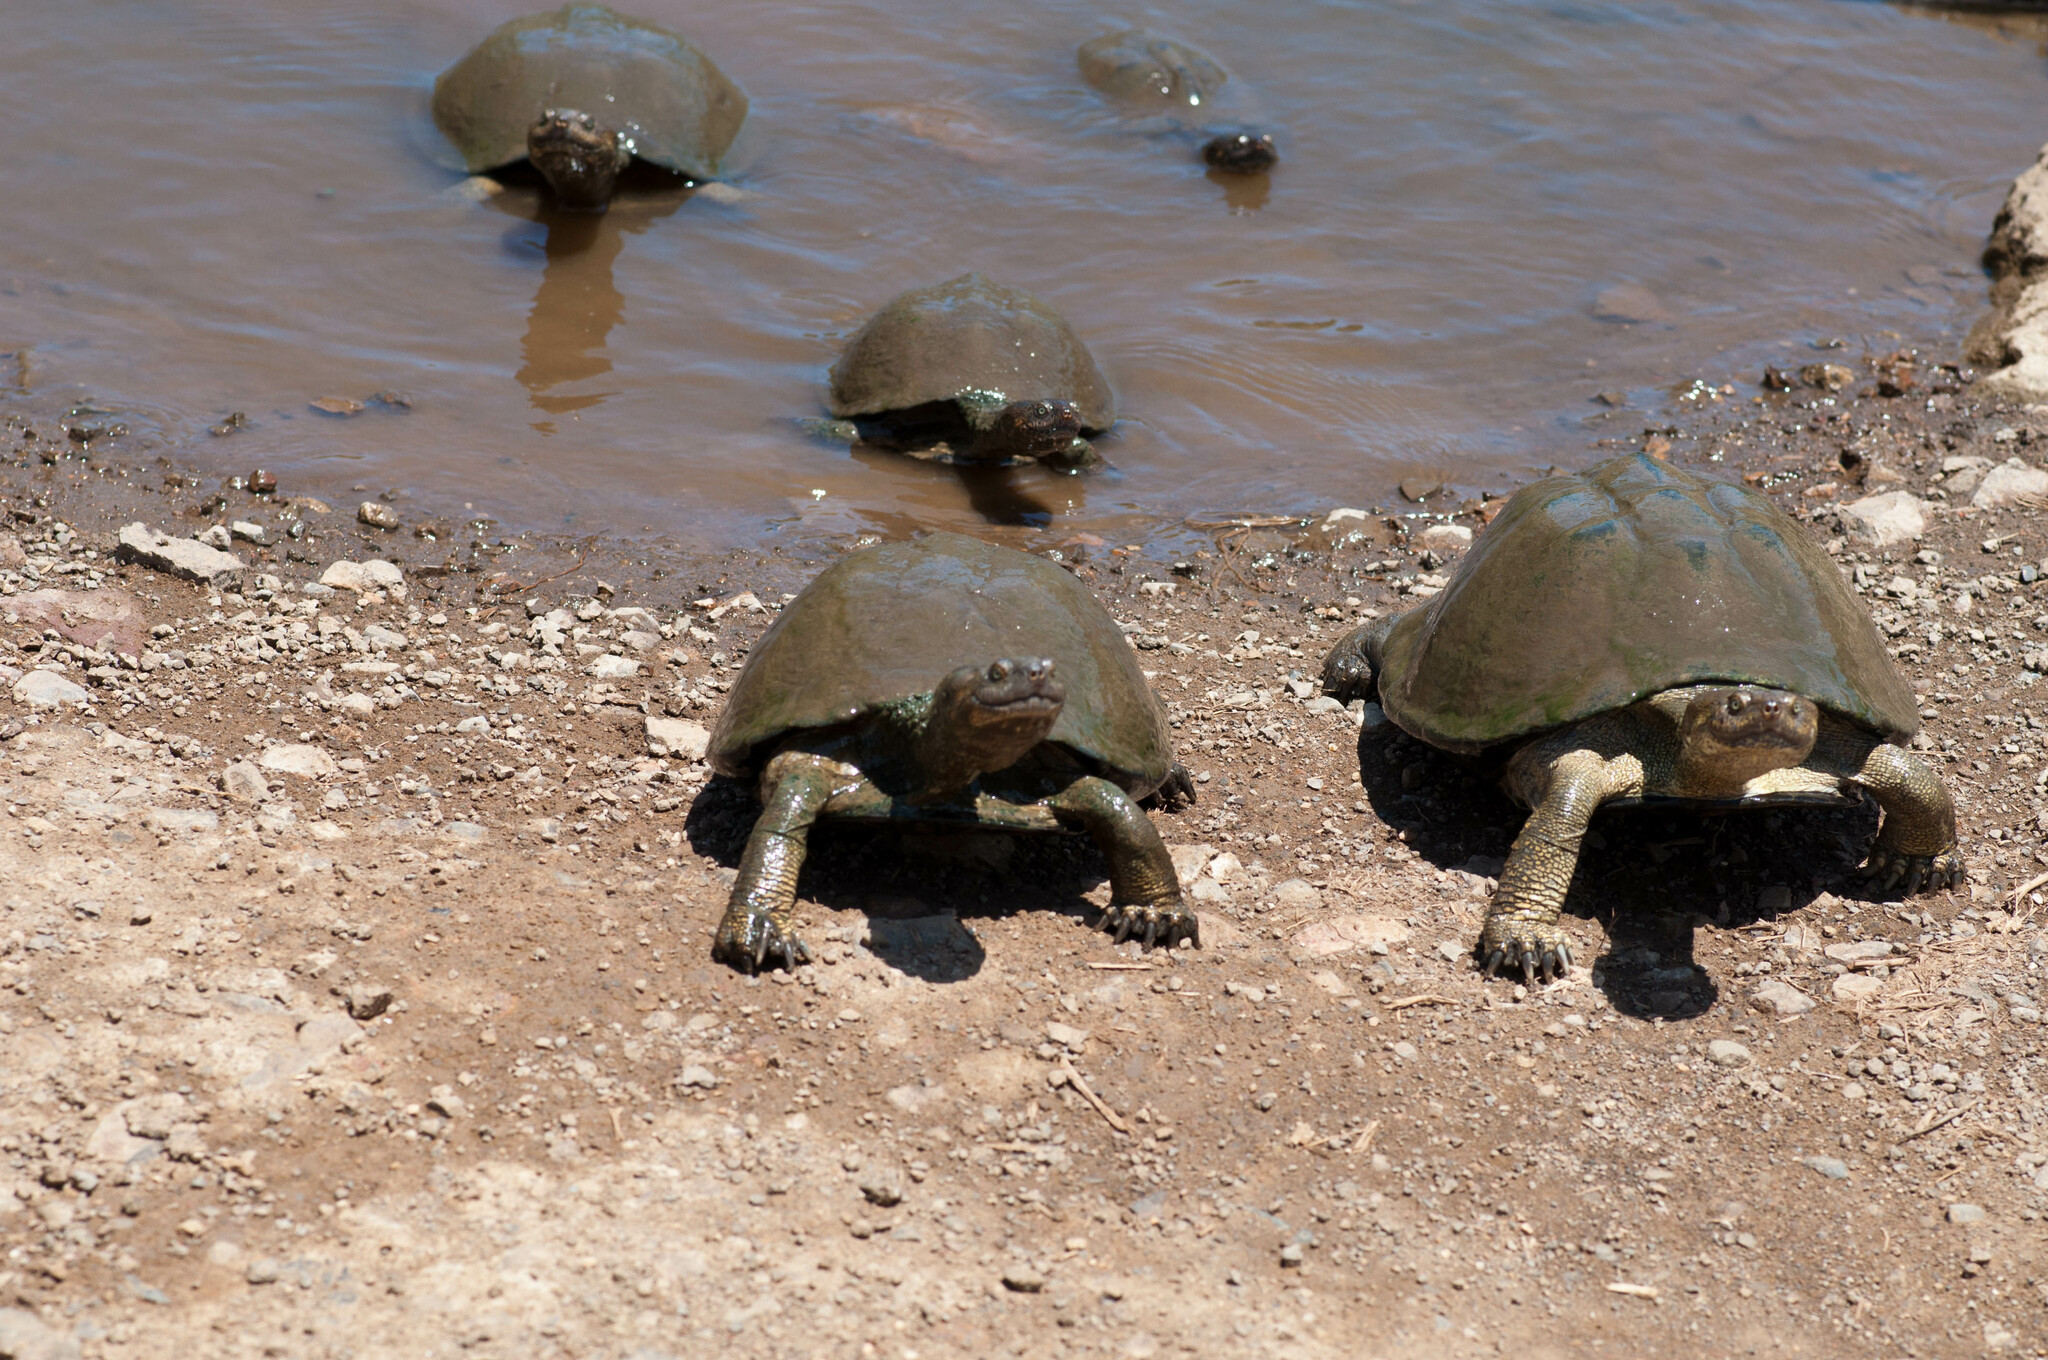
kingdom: Animalia
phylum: Chordata
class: Testudines
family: Pelomedusidae
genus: Pelusios
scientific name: Pelusios sinuatus
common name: Serrated hinged terrapin
